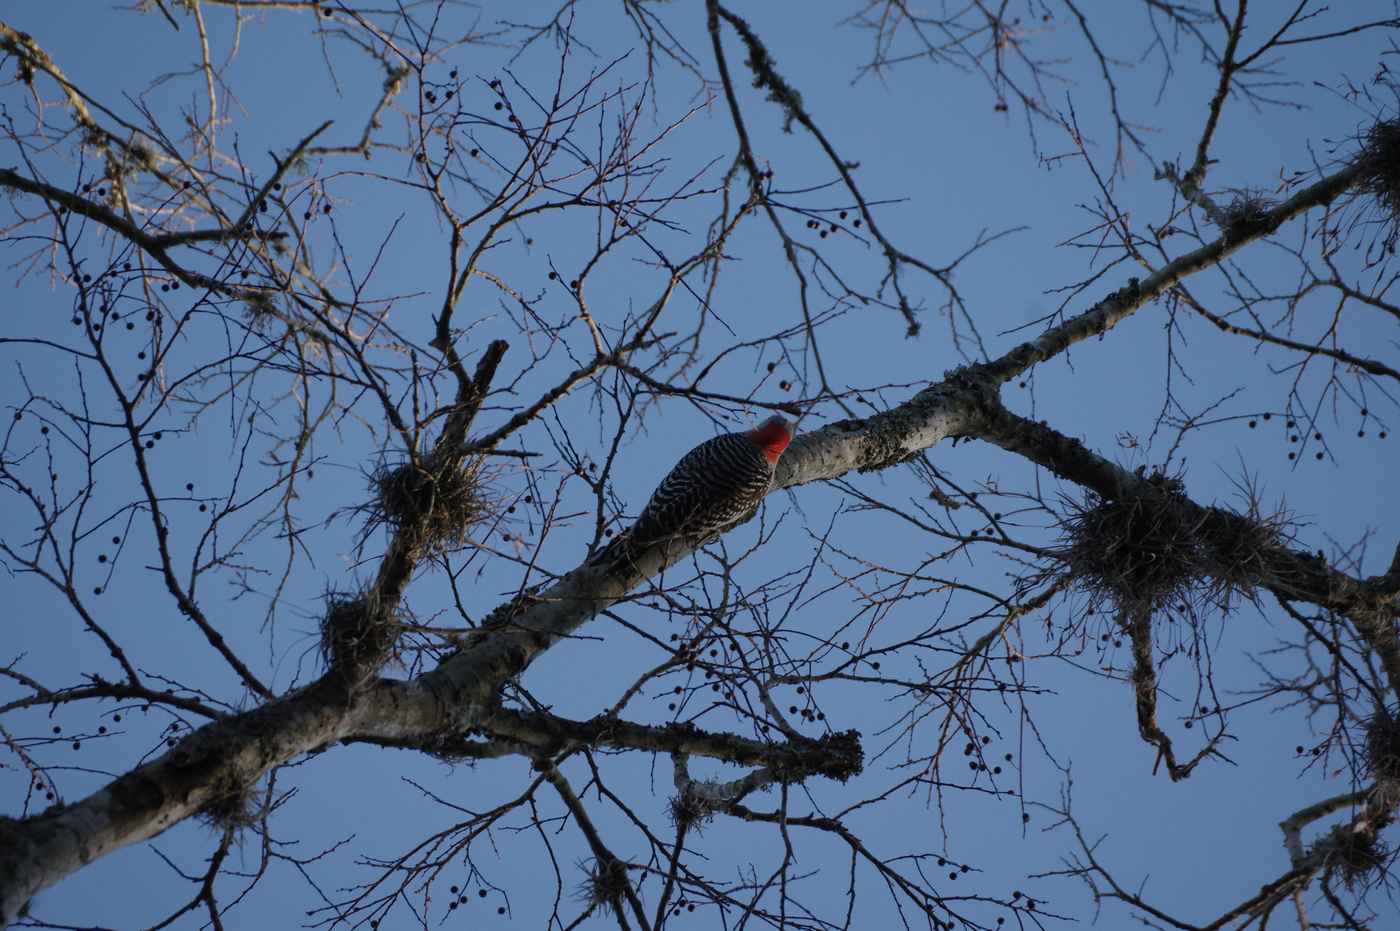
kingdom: Animalia
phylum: Chordata
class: Aves
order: Piciformes
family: Picidae
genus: Melanerpes
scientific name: Melanerpes carolinus
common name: Red-bellied woodpecker
